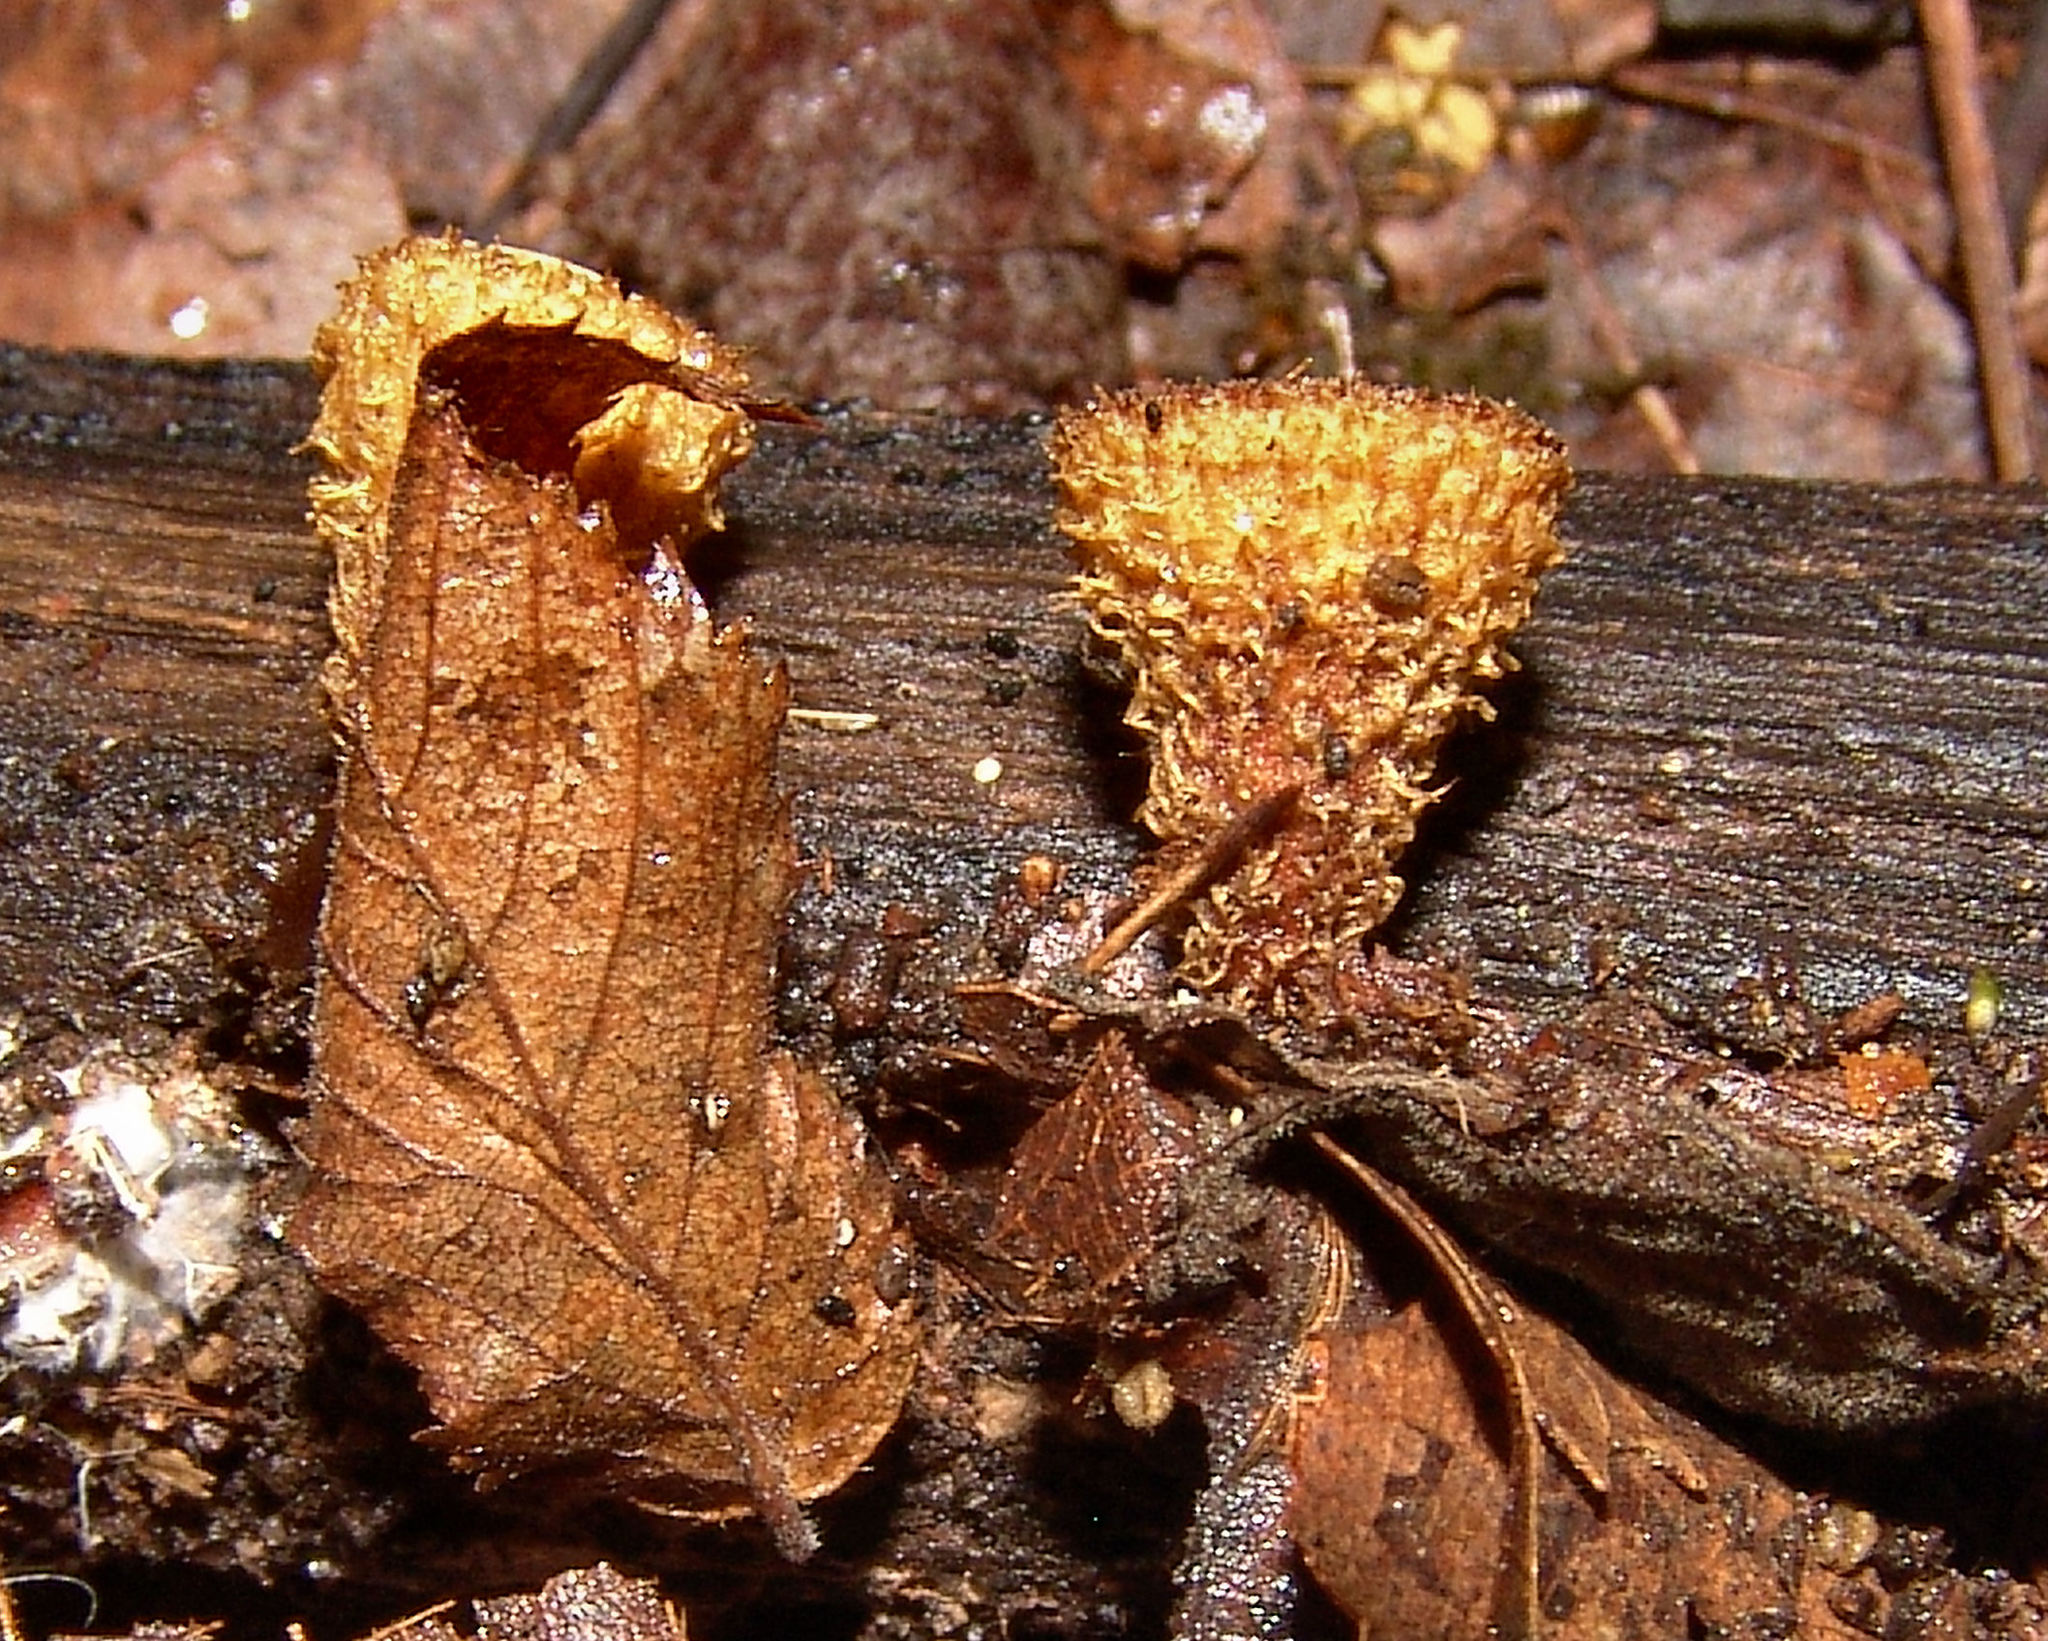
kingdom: Fungi
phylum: Basidiomycota
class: Agaricomycetes
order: Agaricales
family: Agaricaceae
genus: Cyathus
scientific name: Cyathus striatus
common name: Fluted bird's nest
